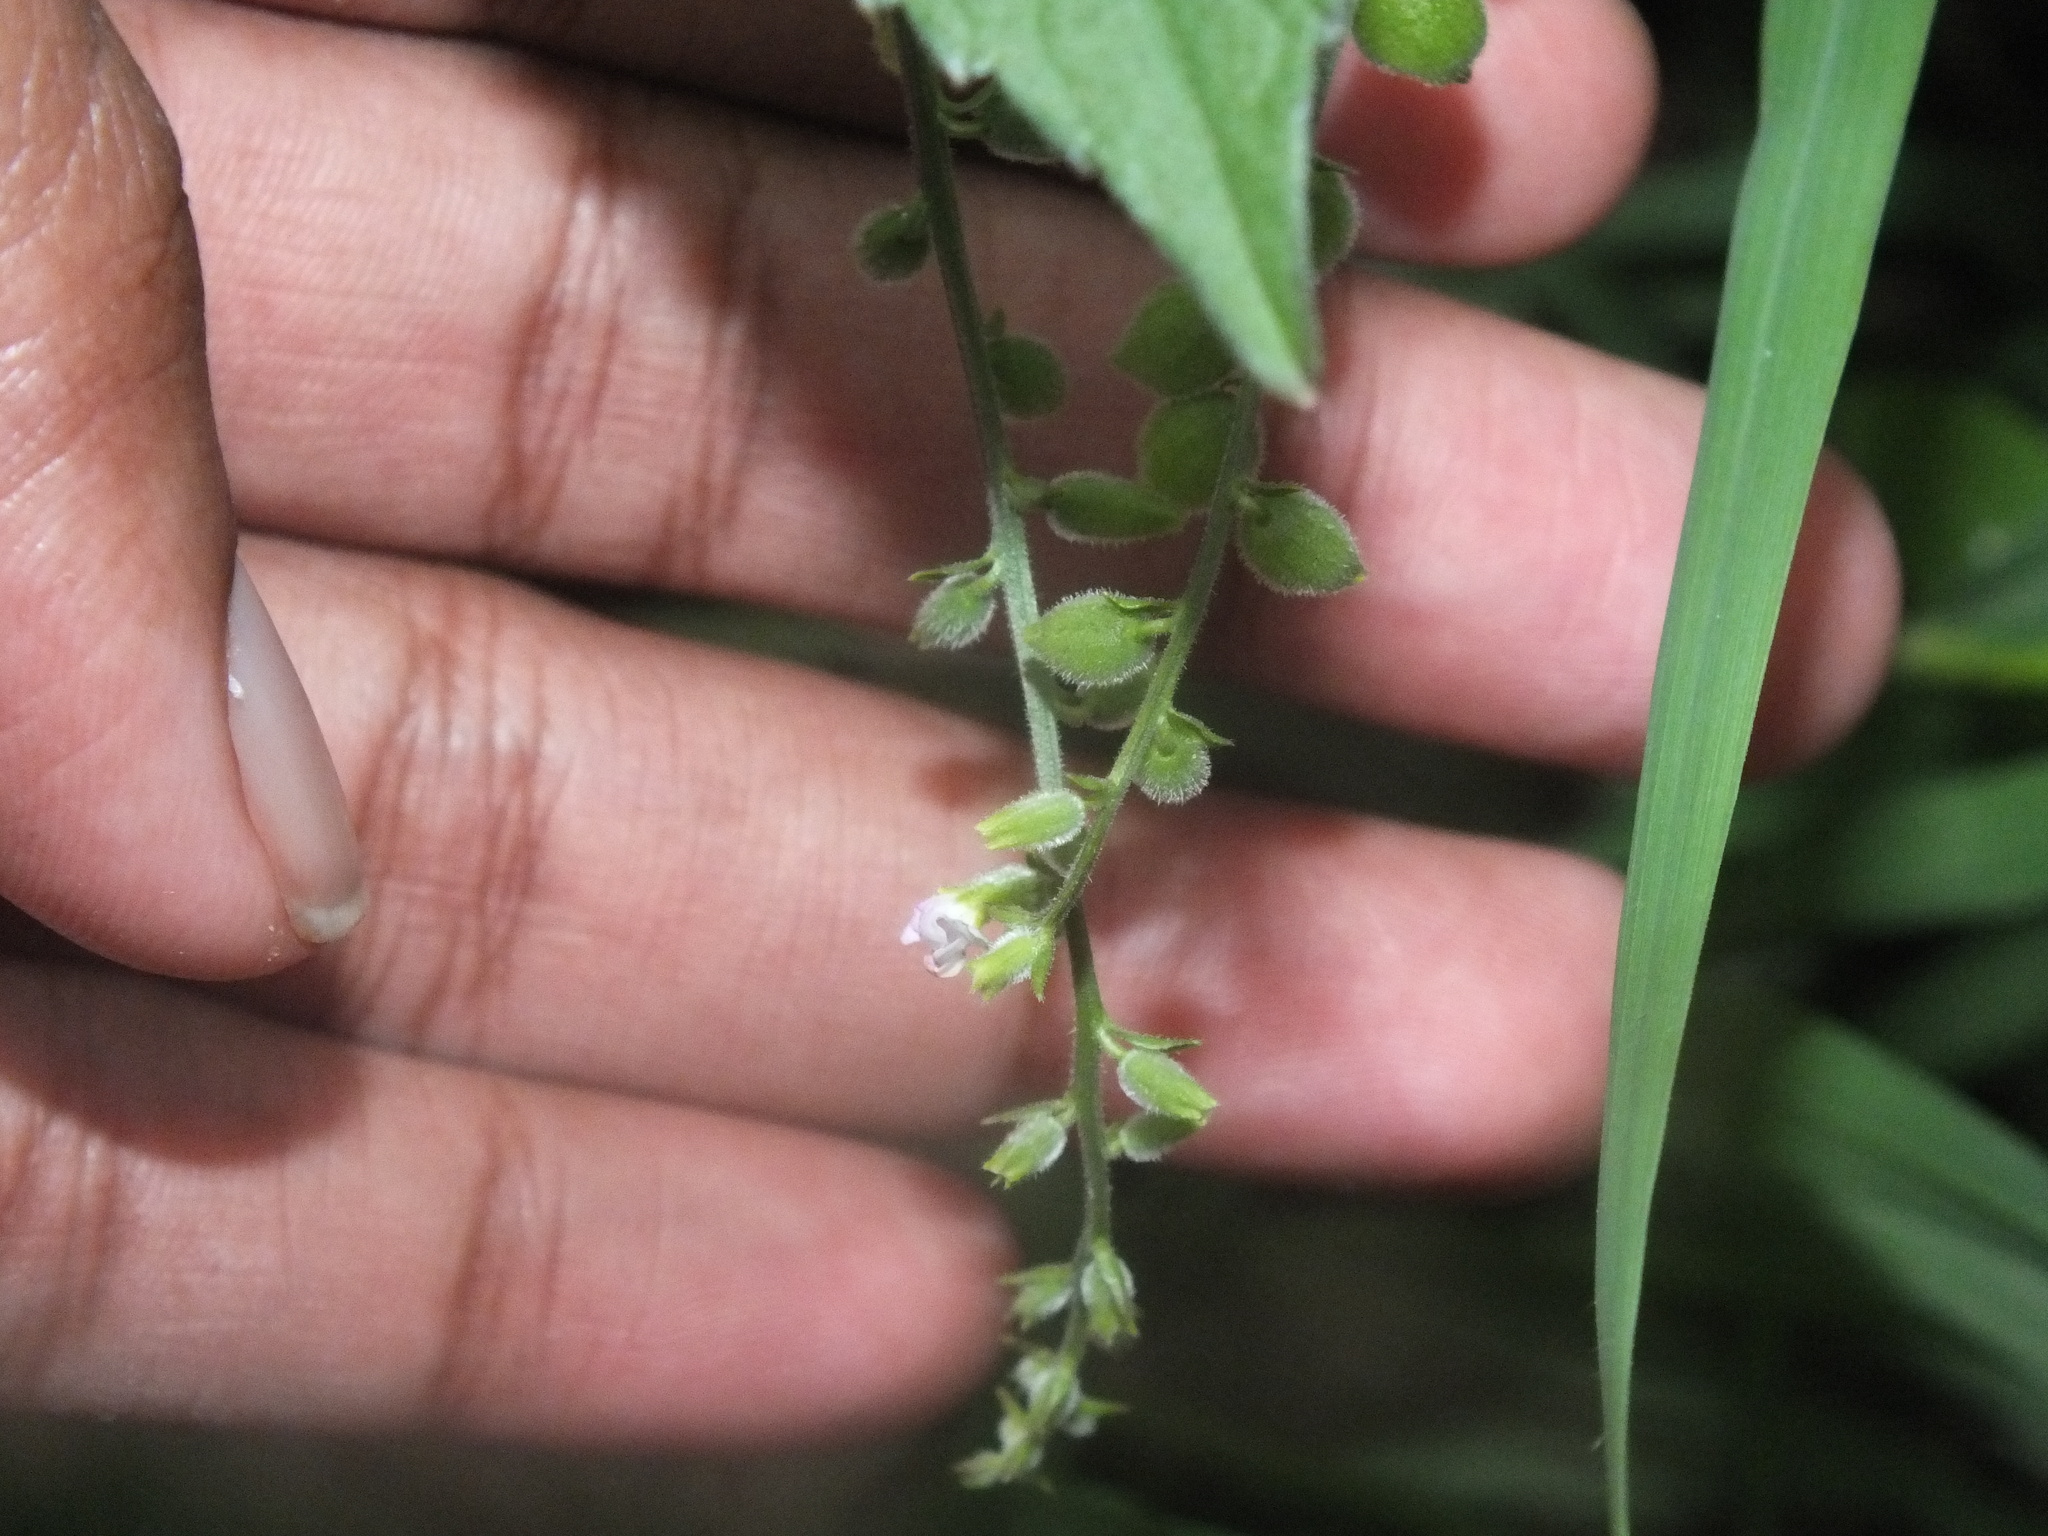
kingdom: Plantae
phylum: Tracheophyta
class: Magnoliopsida
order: Lamiales
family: Verbenaceae
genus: Priva
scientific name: Priva lappulacea
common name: Fasten-'pon-coat
